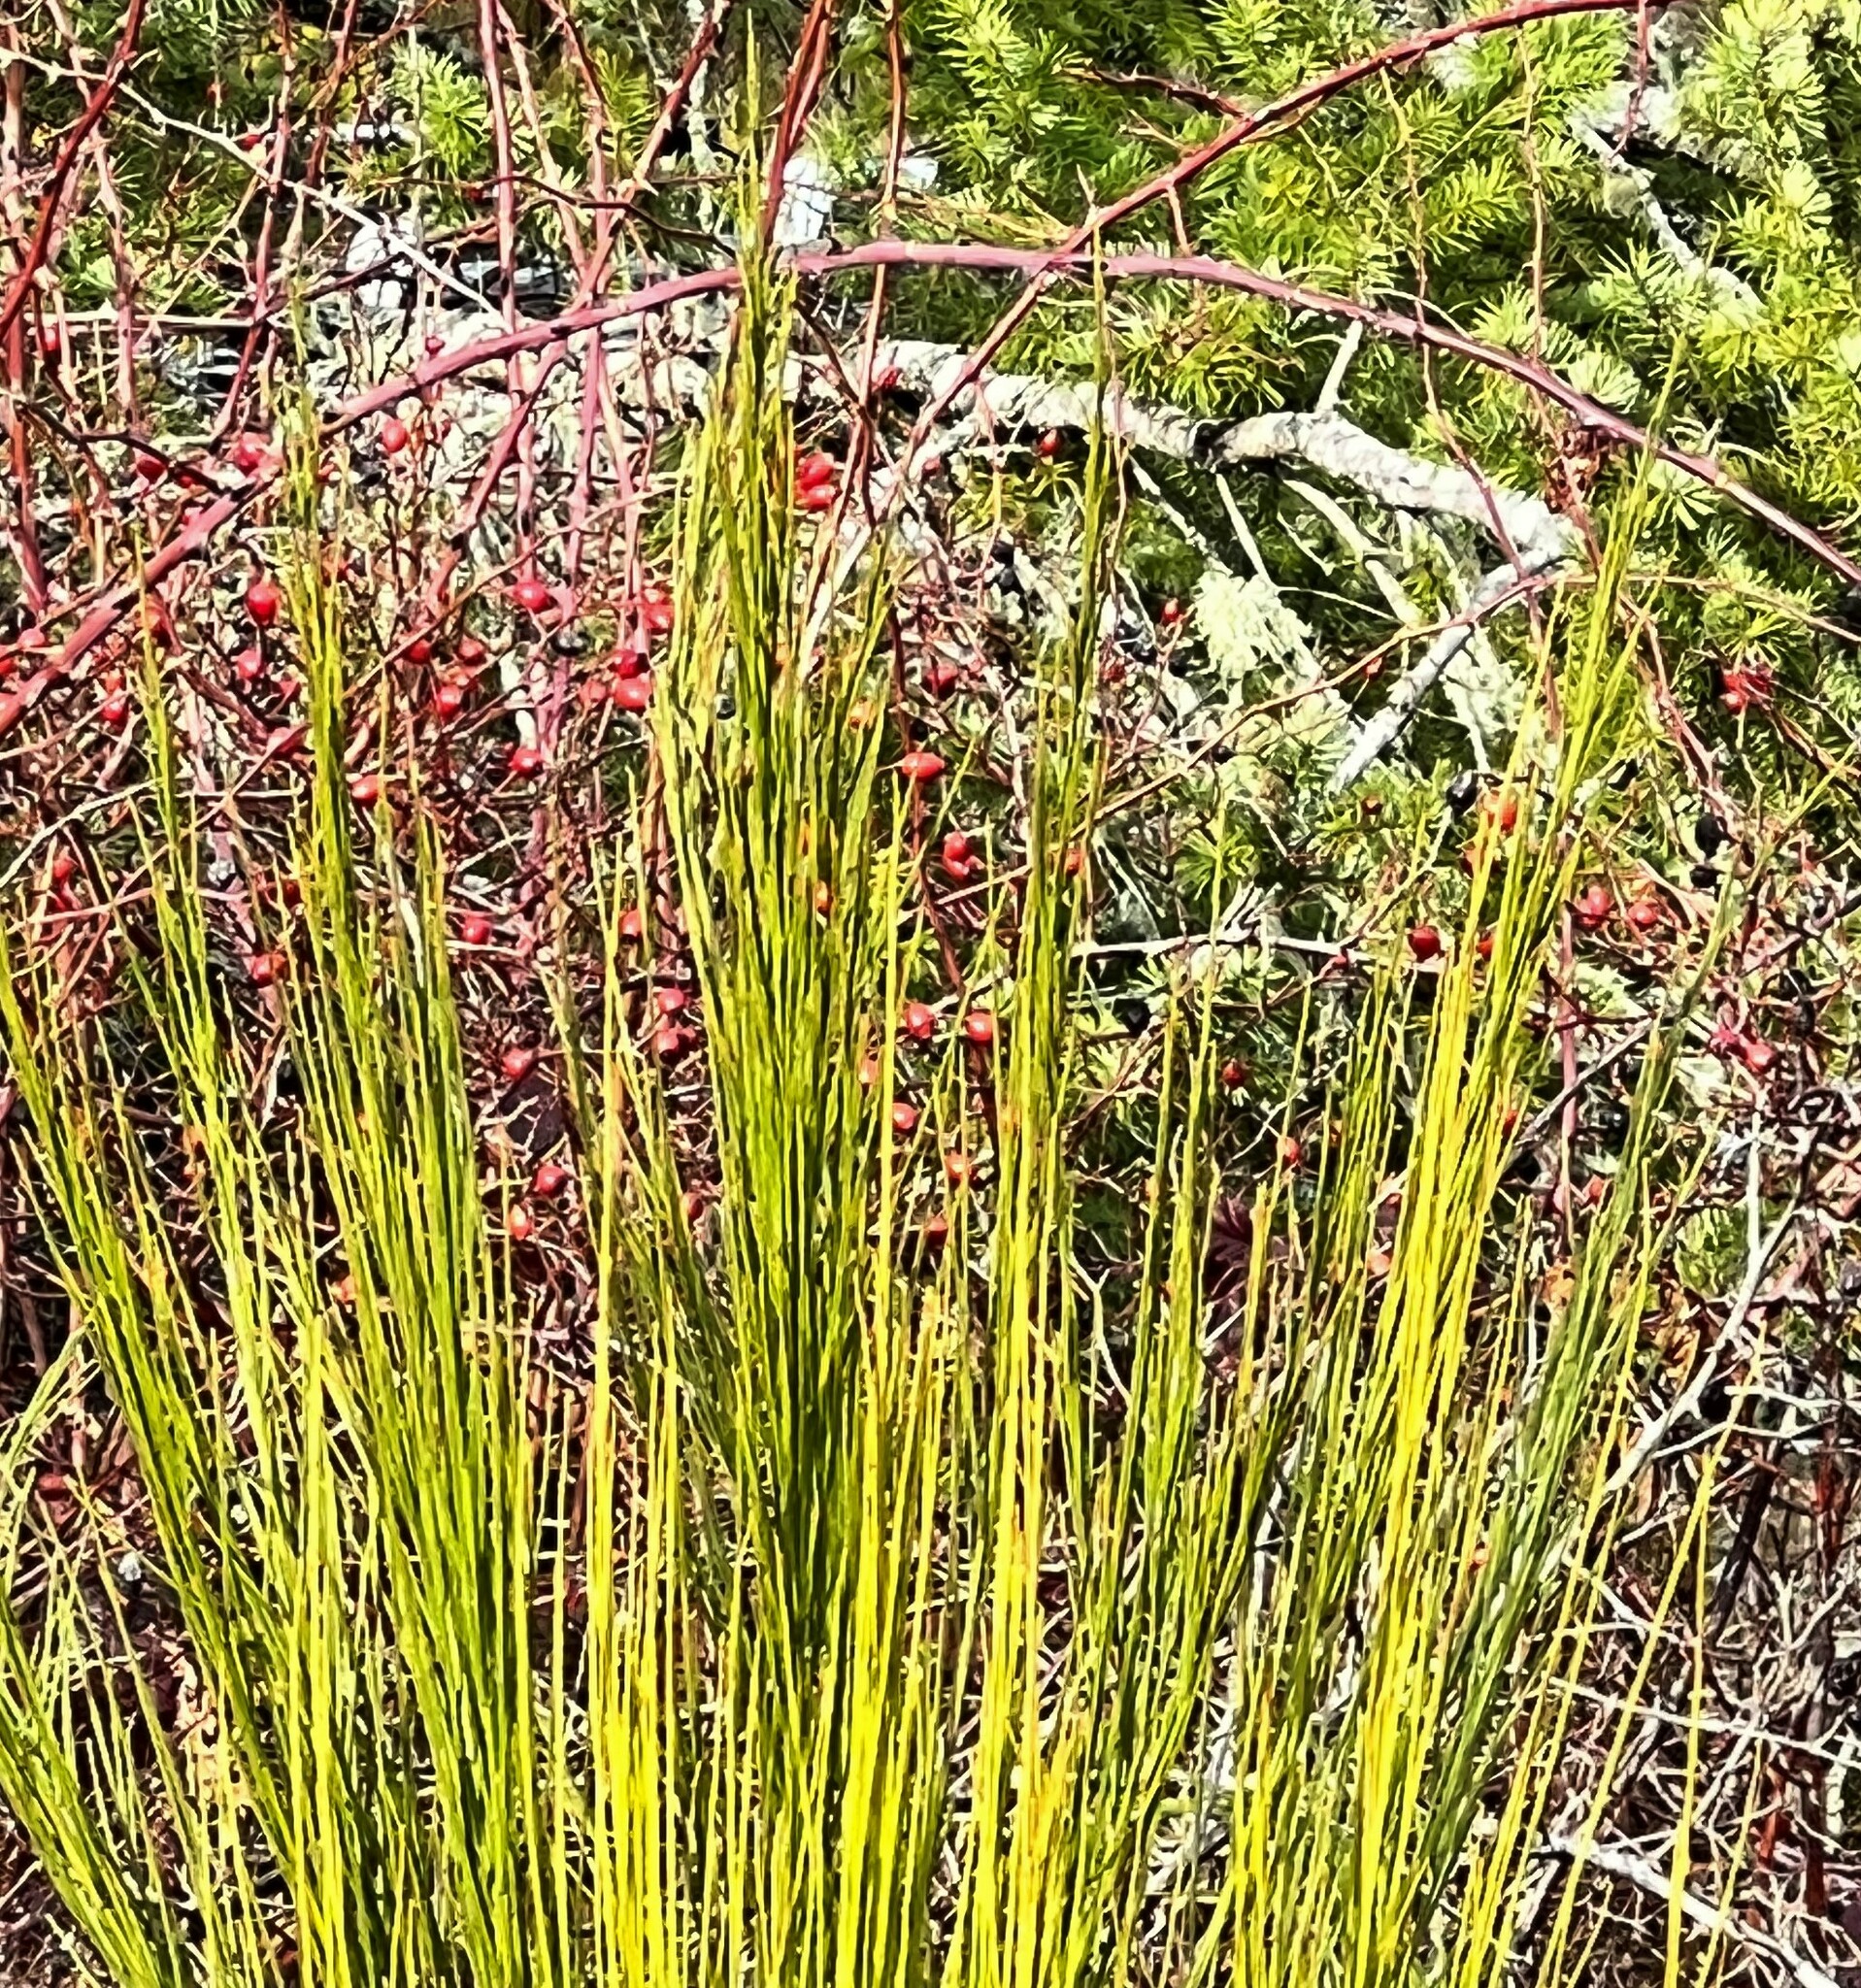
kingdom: Plantae
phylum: Tracheophyta
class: Magnoliopsida
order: Fabales
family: Fabaceae
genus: Cytisus
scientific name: Cytisus scoparius
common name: Scotch broom
